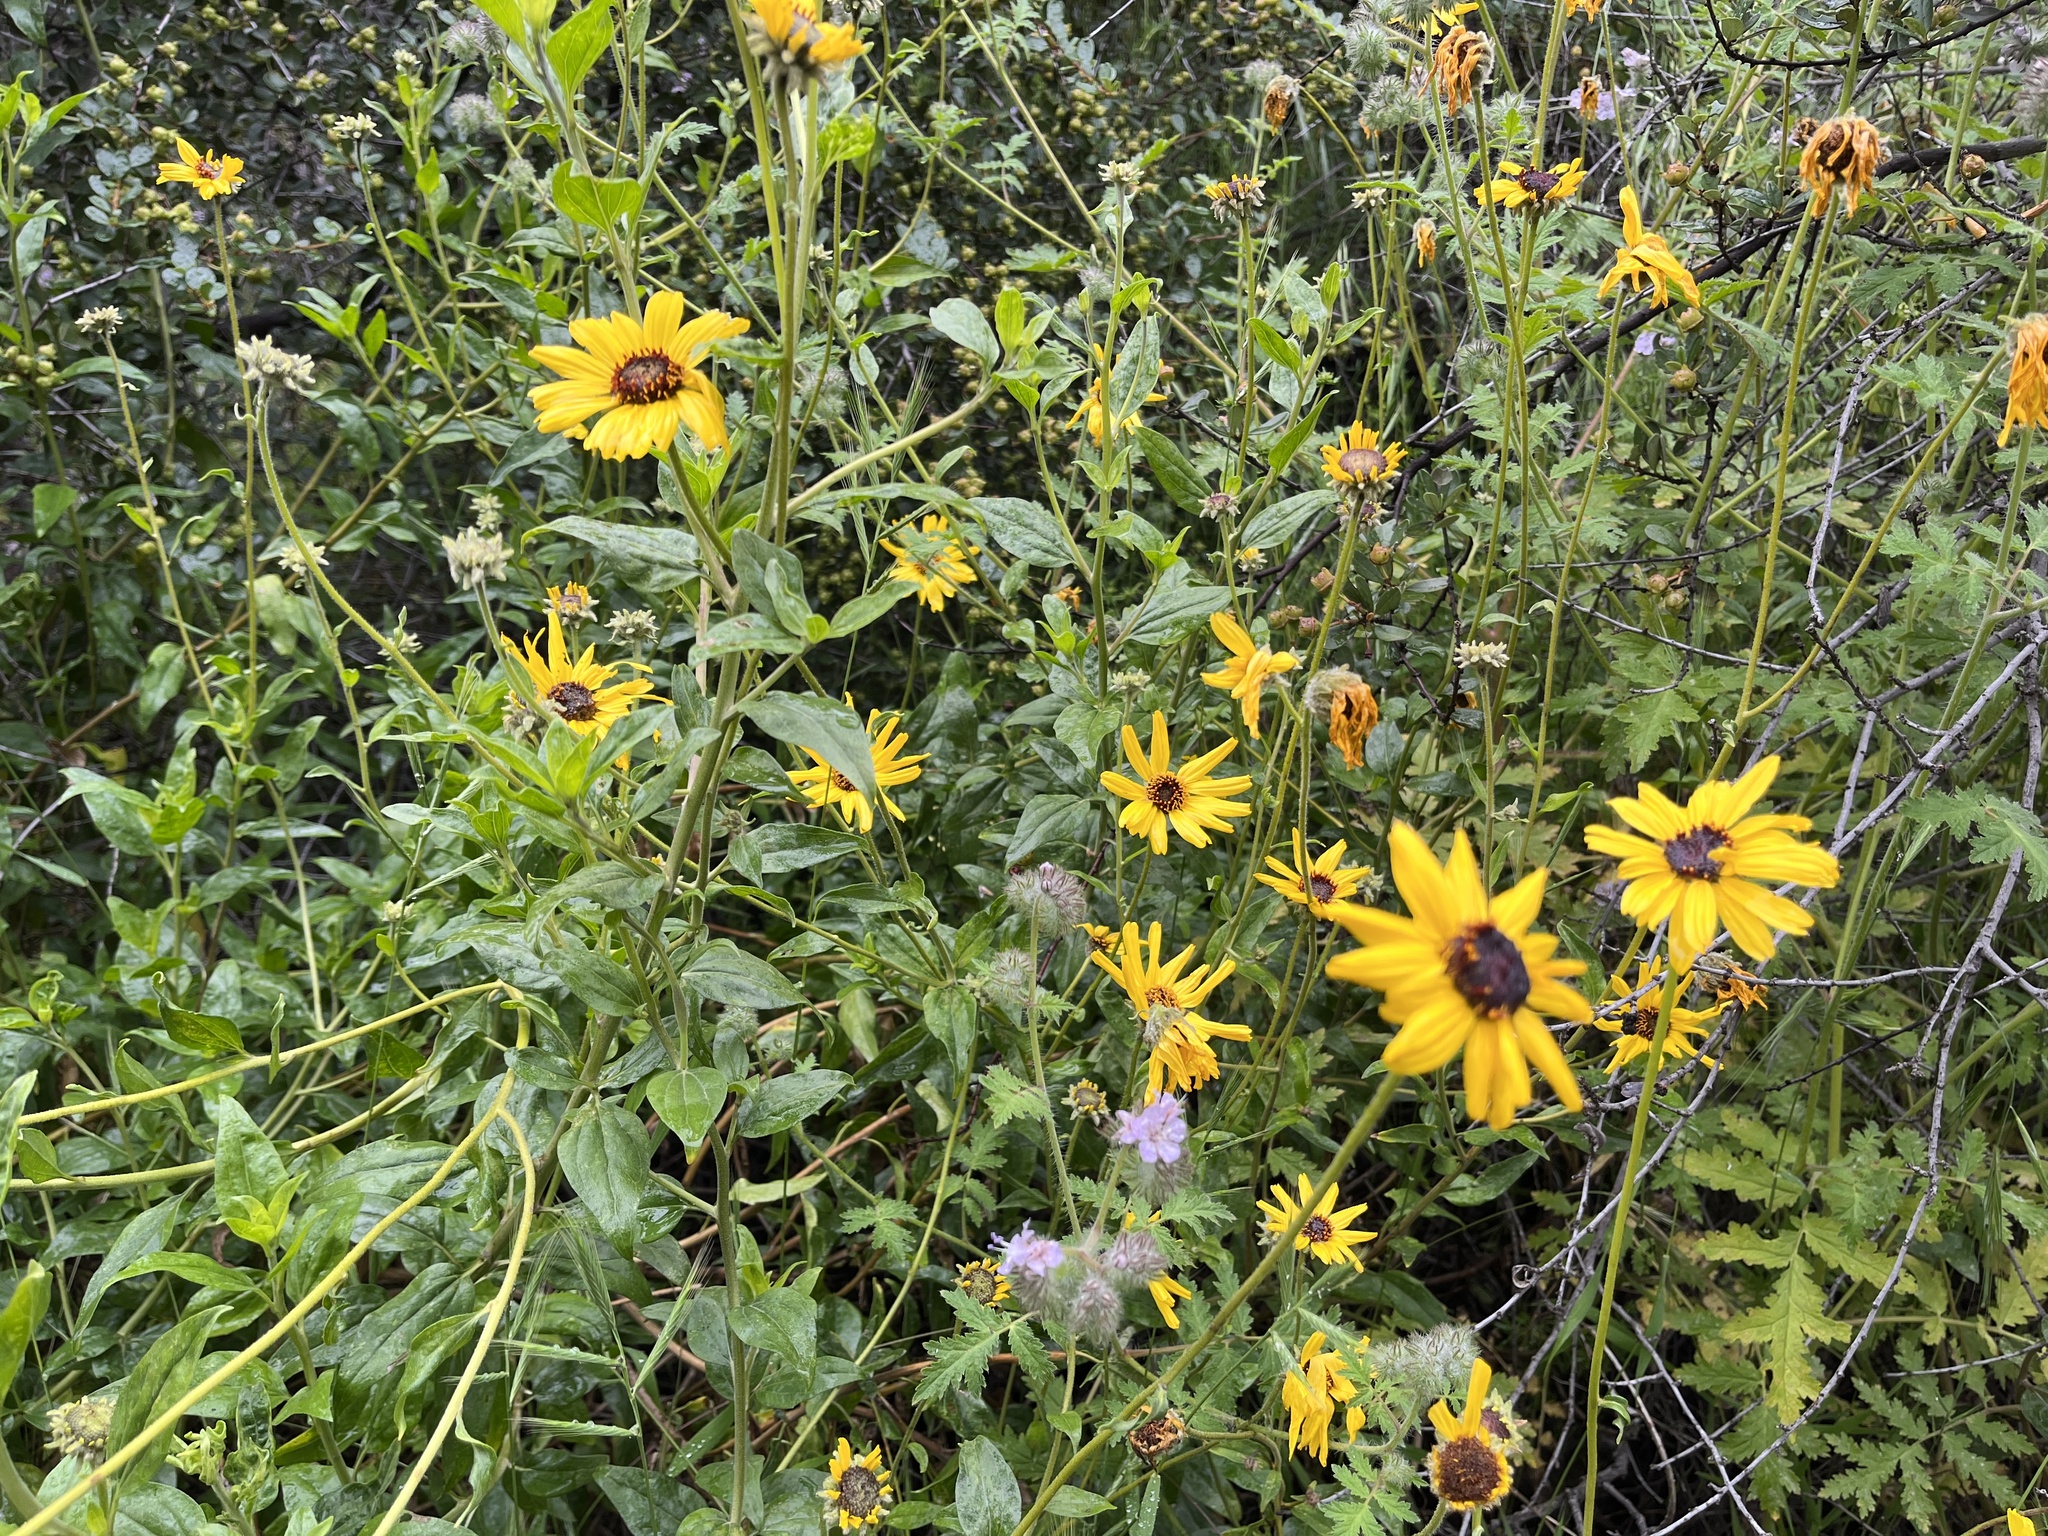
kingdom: Plantae
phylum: Tracheophyta
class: Magnoliopsida
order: Asterales
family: Asteraceae
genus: Encelia
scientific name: Encelia californica
